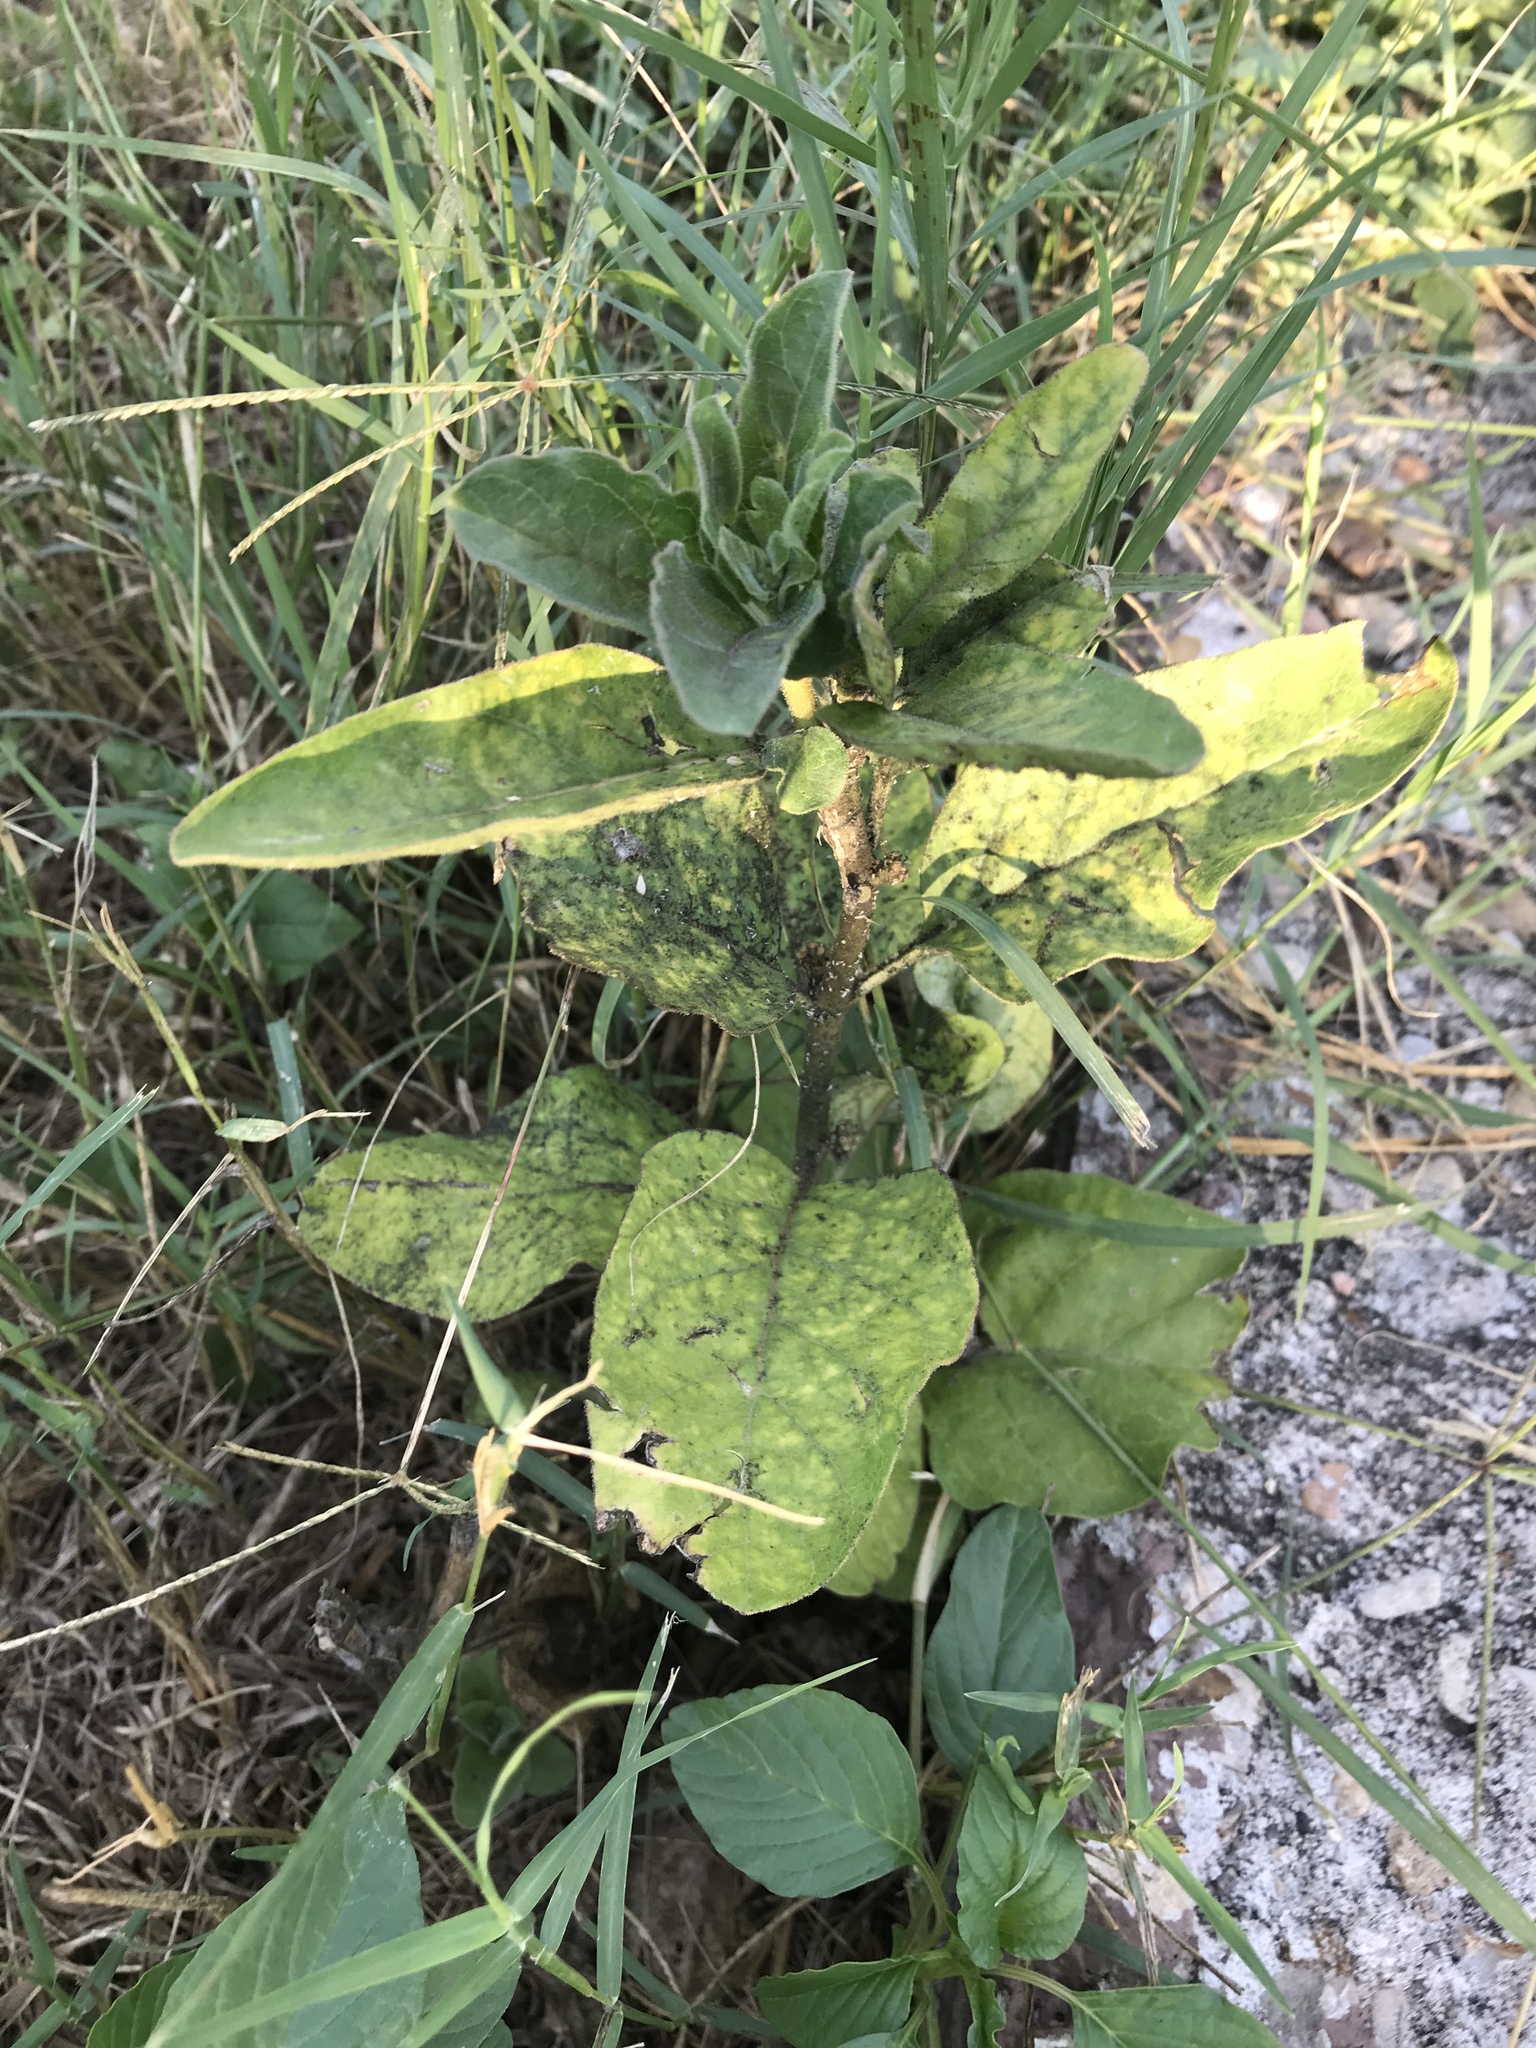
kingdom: Plantae
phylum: Tracheophyta
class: Magnoliopsida
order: Gentianales
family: Apocynaceae
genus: Asclepias
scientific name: Asclepias oenotheroides
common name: Zizotes milkweed
